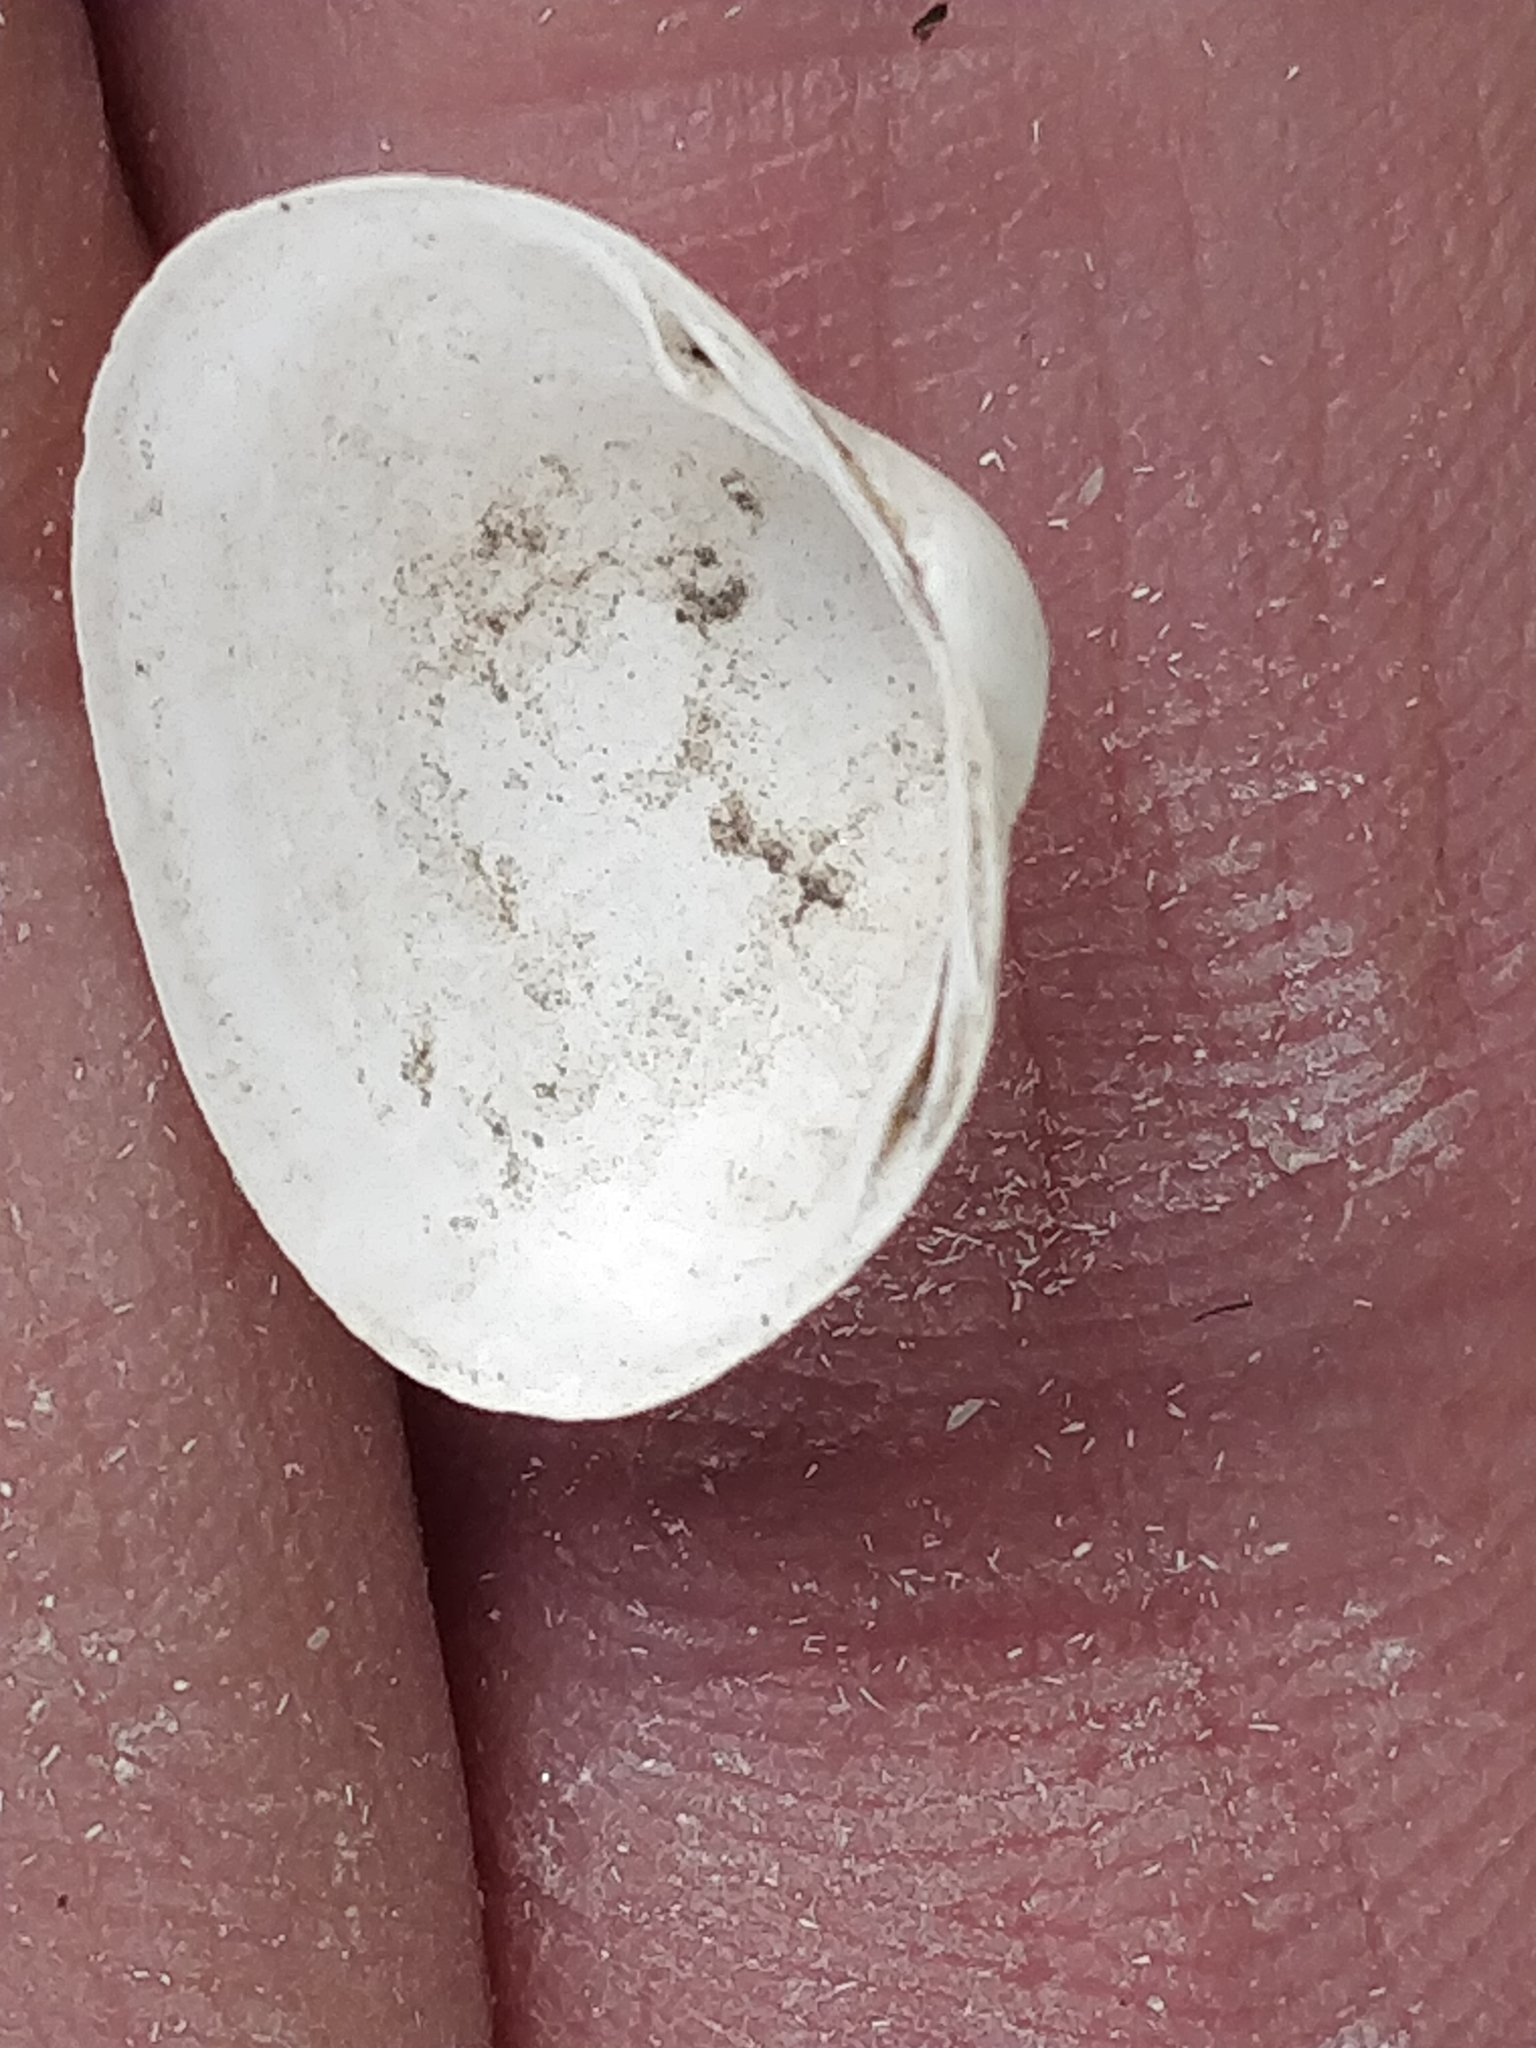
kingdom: Animalia
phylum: Mollusca
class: Bivalvia
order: Sphaeriida
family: Sphaeriidae
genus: Sphaerium
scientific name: Sphaerium striatinum
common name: Striated fingernailclam
